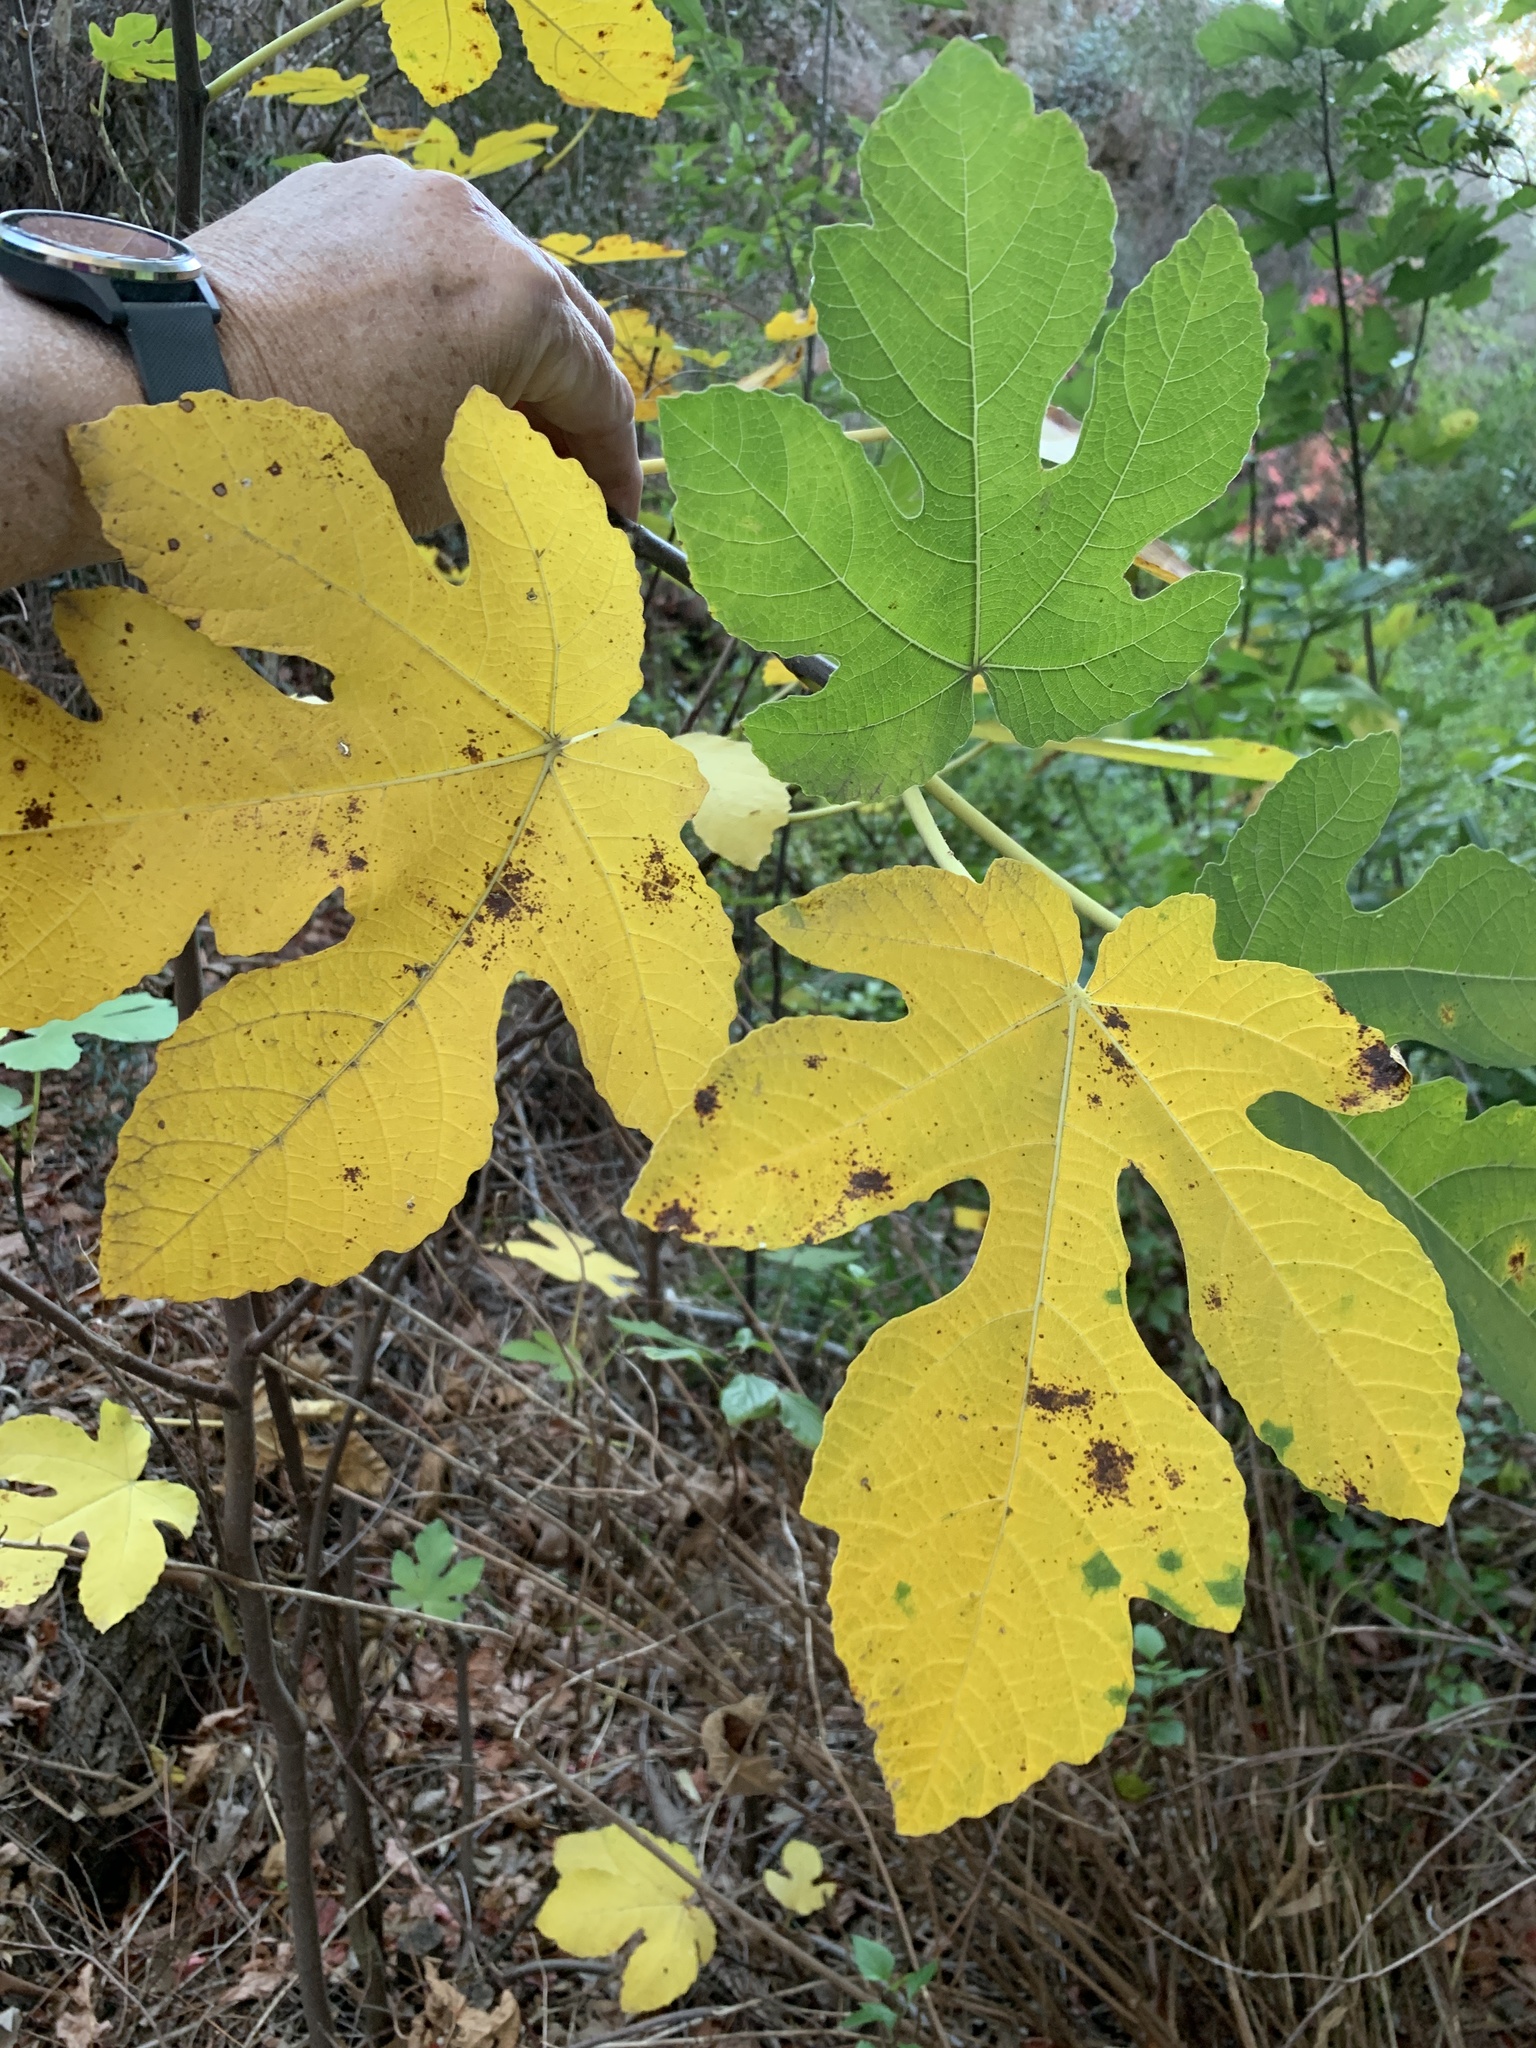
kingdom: Plantae
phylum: Tracheophyta
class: Magnoliopsida
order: Rosales
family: Moraceae
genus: Ficus
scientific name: Ficus carica
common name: Fig
